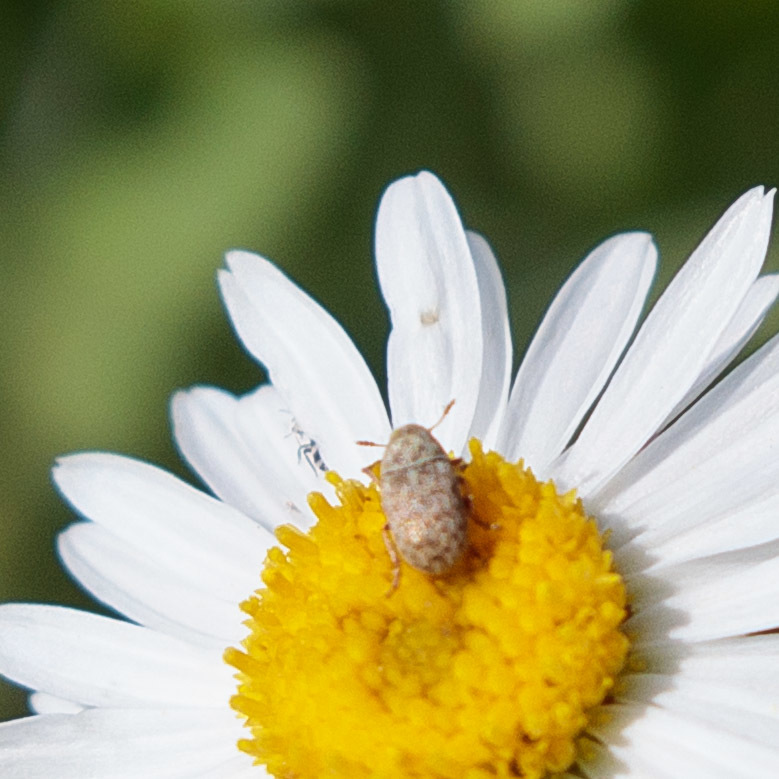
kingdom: Animalia
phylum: Arthropoda
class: Insecta
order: Coleoptera
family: Anthribidae
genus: Trigonorhinus
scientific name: Trigonorhinus limbatus
